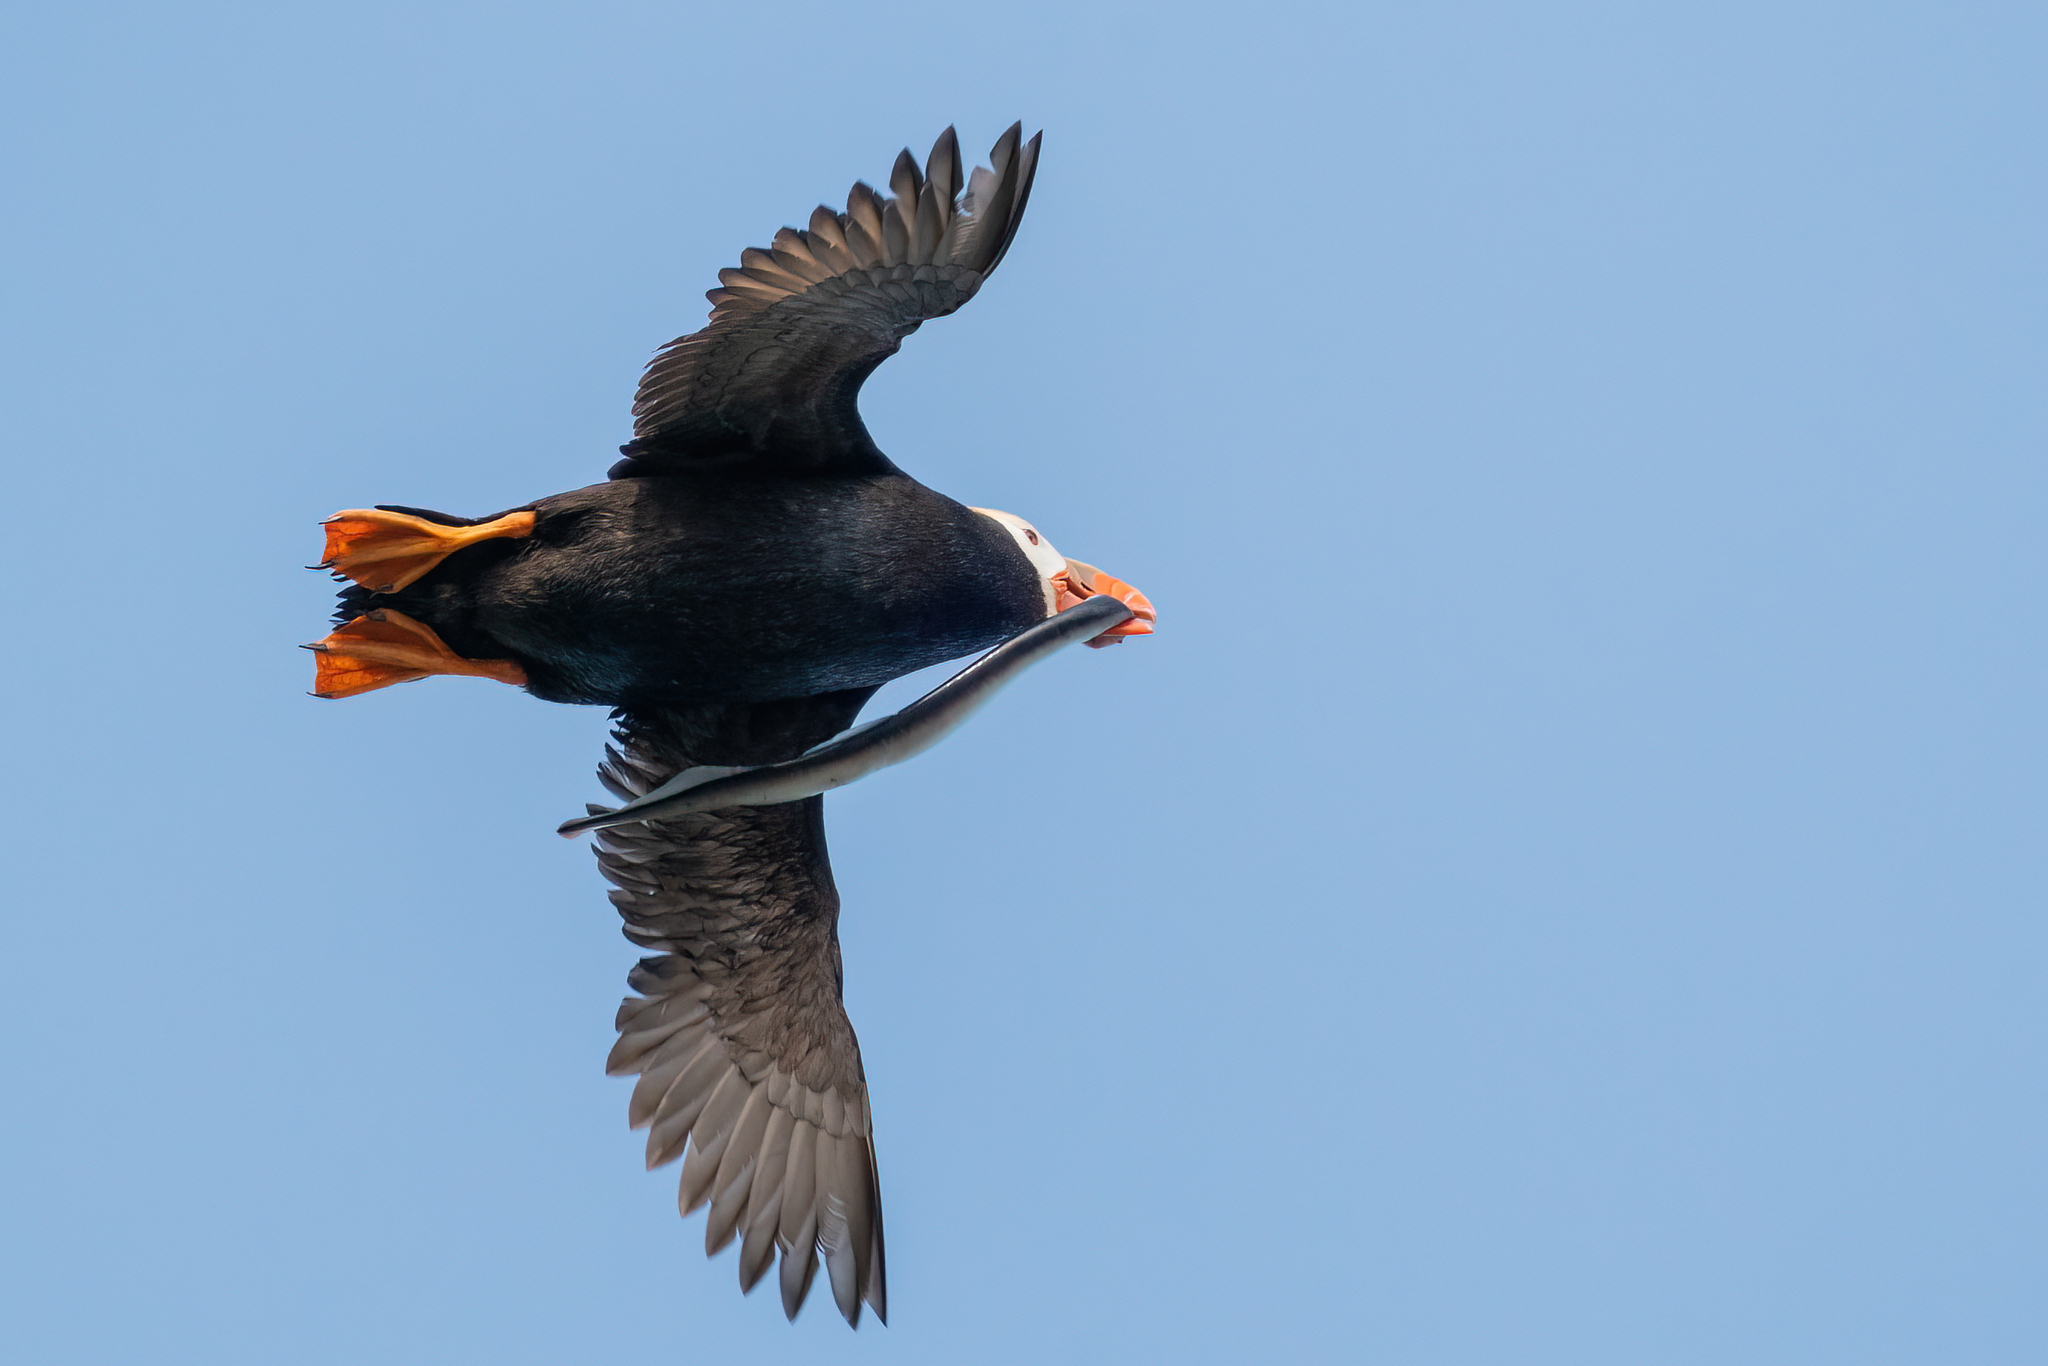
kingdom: Animalia
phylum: Chordata
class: Petromyzonti
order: Petromyzontiformes
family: Petromyzontidae
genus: Entosphenus
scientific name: Entosphenus tridentatus
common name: Pacific lamprey
